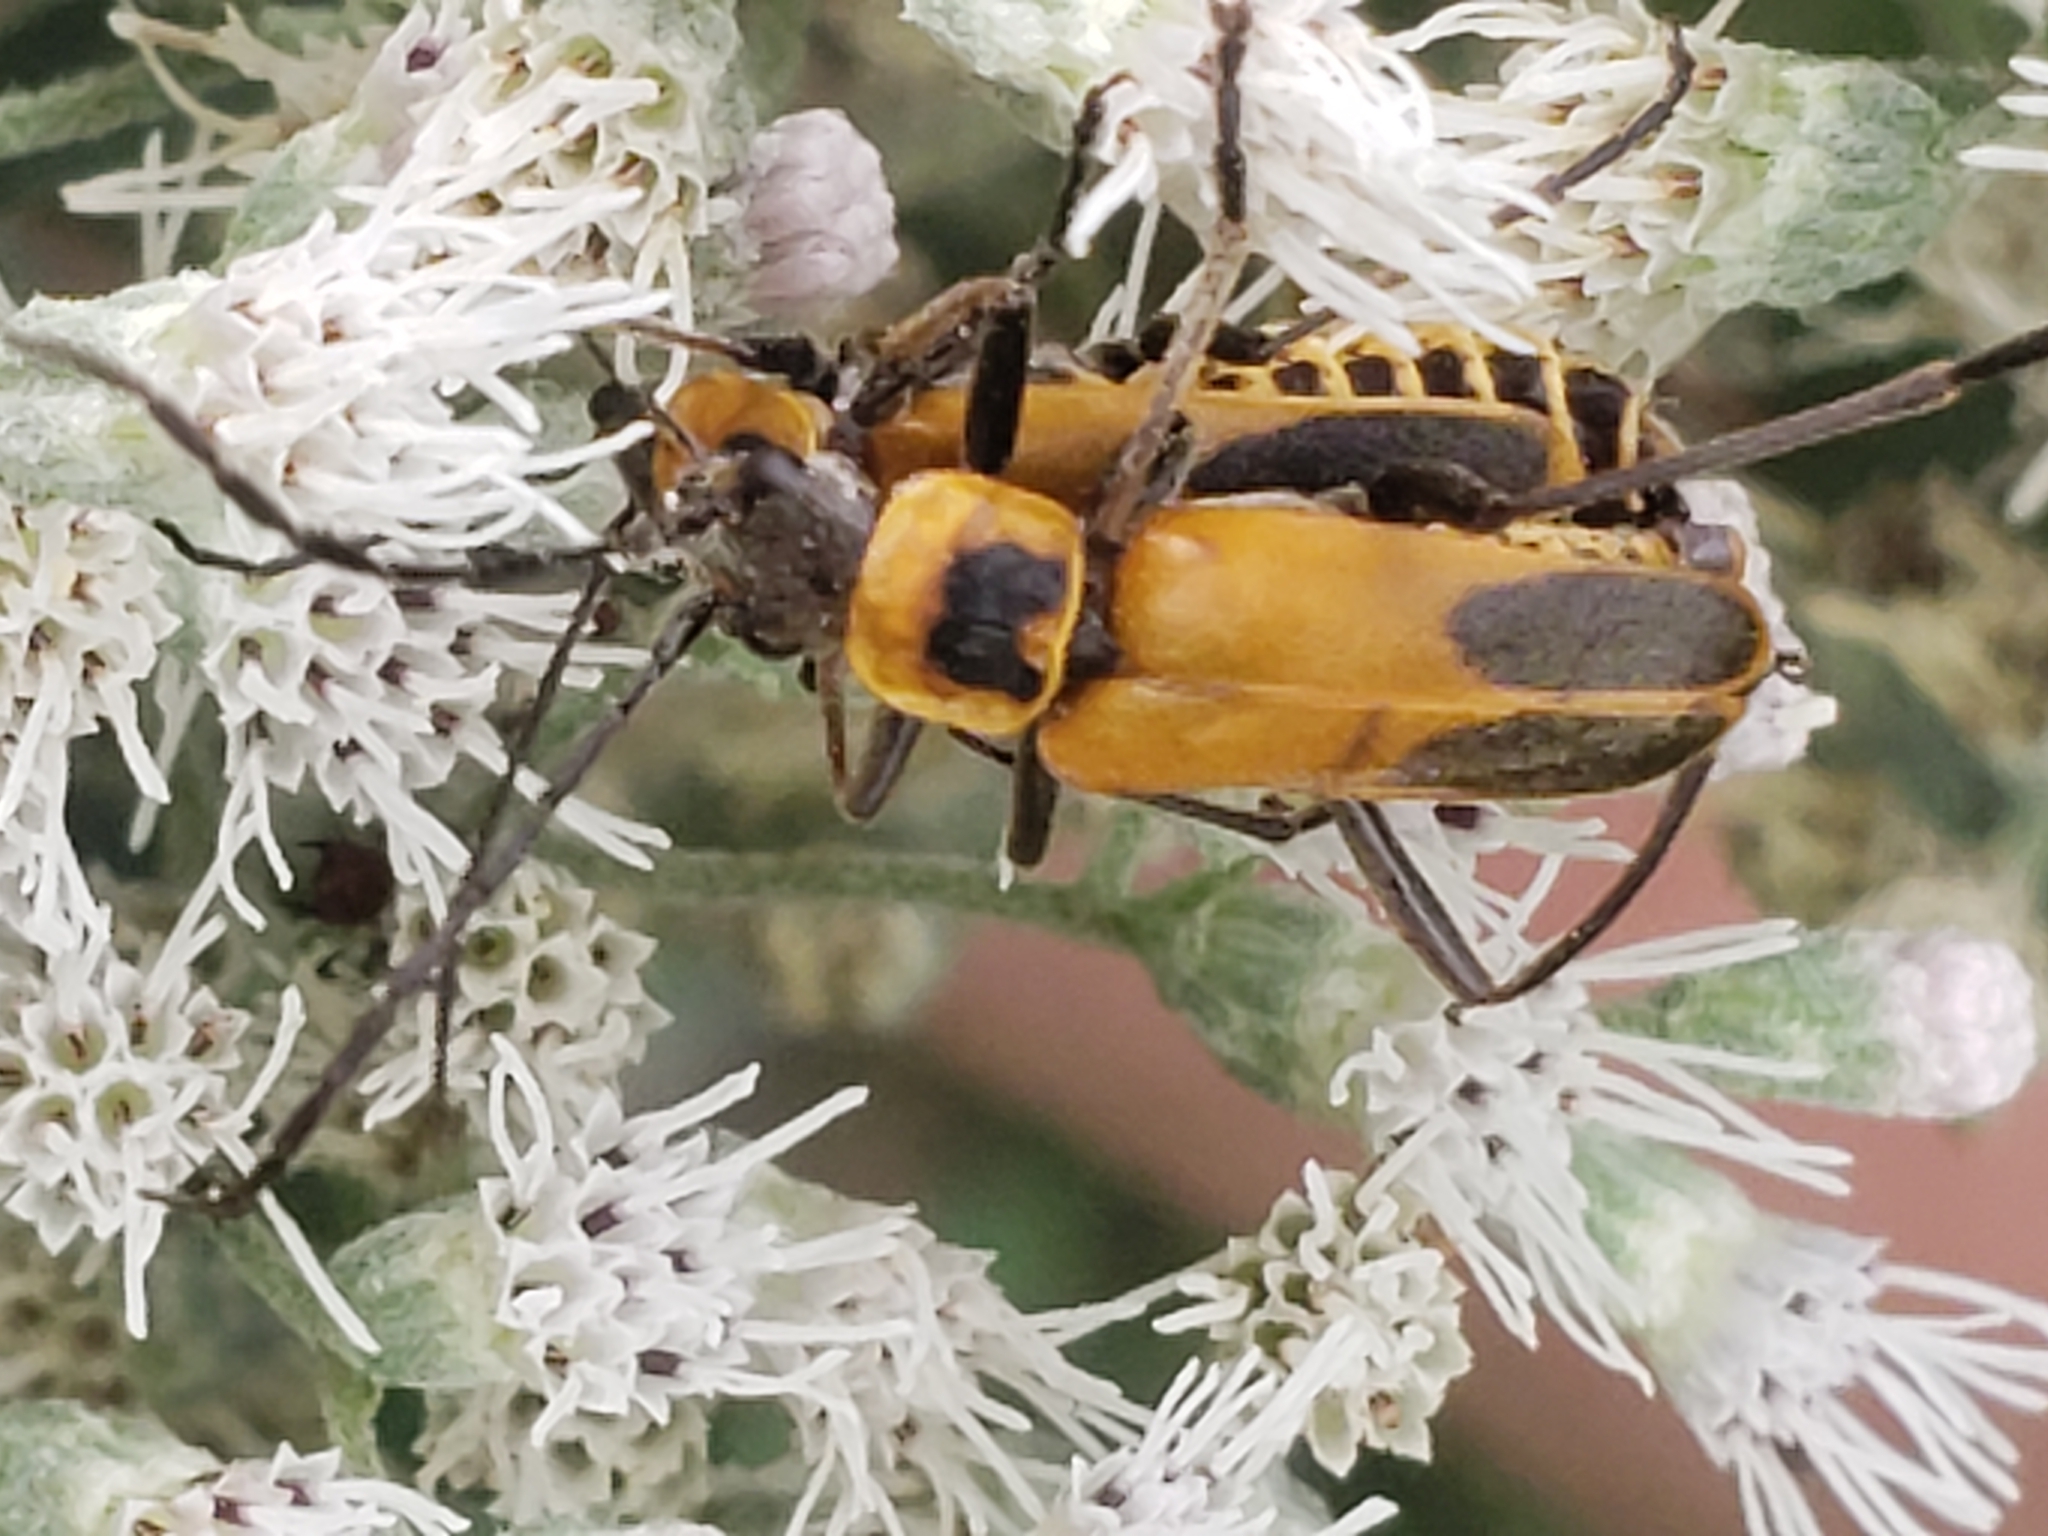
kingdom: Animalia
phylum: Arthropoda
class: Insecta
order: Coleoptera
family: Cantharidae
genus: Chauliognathus
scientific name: Chauliognathus pensylvanicus
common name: Goldenrod soldier beetle
